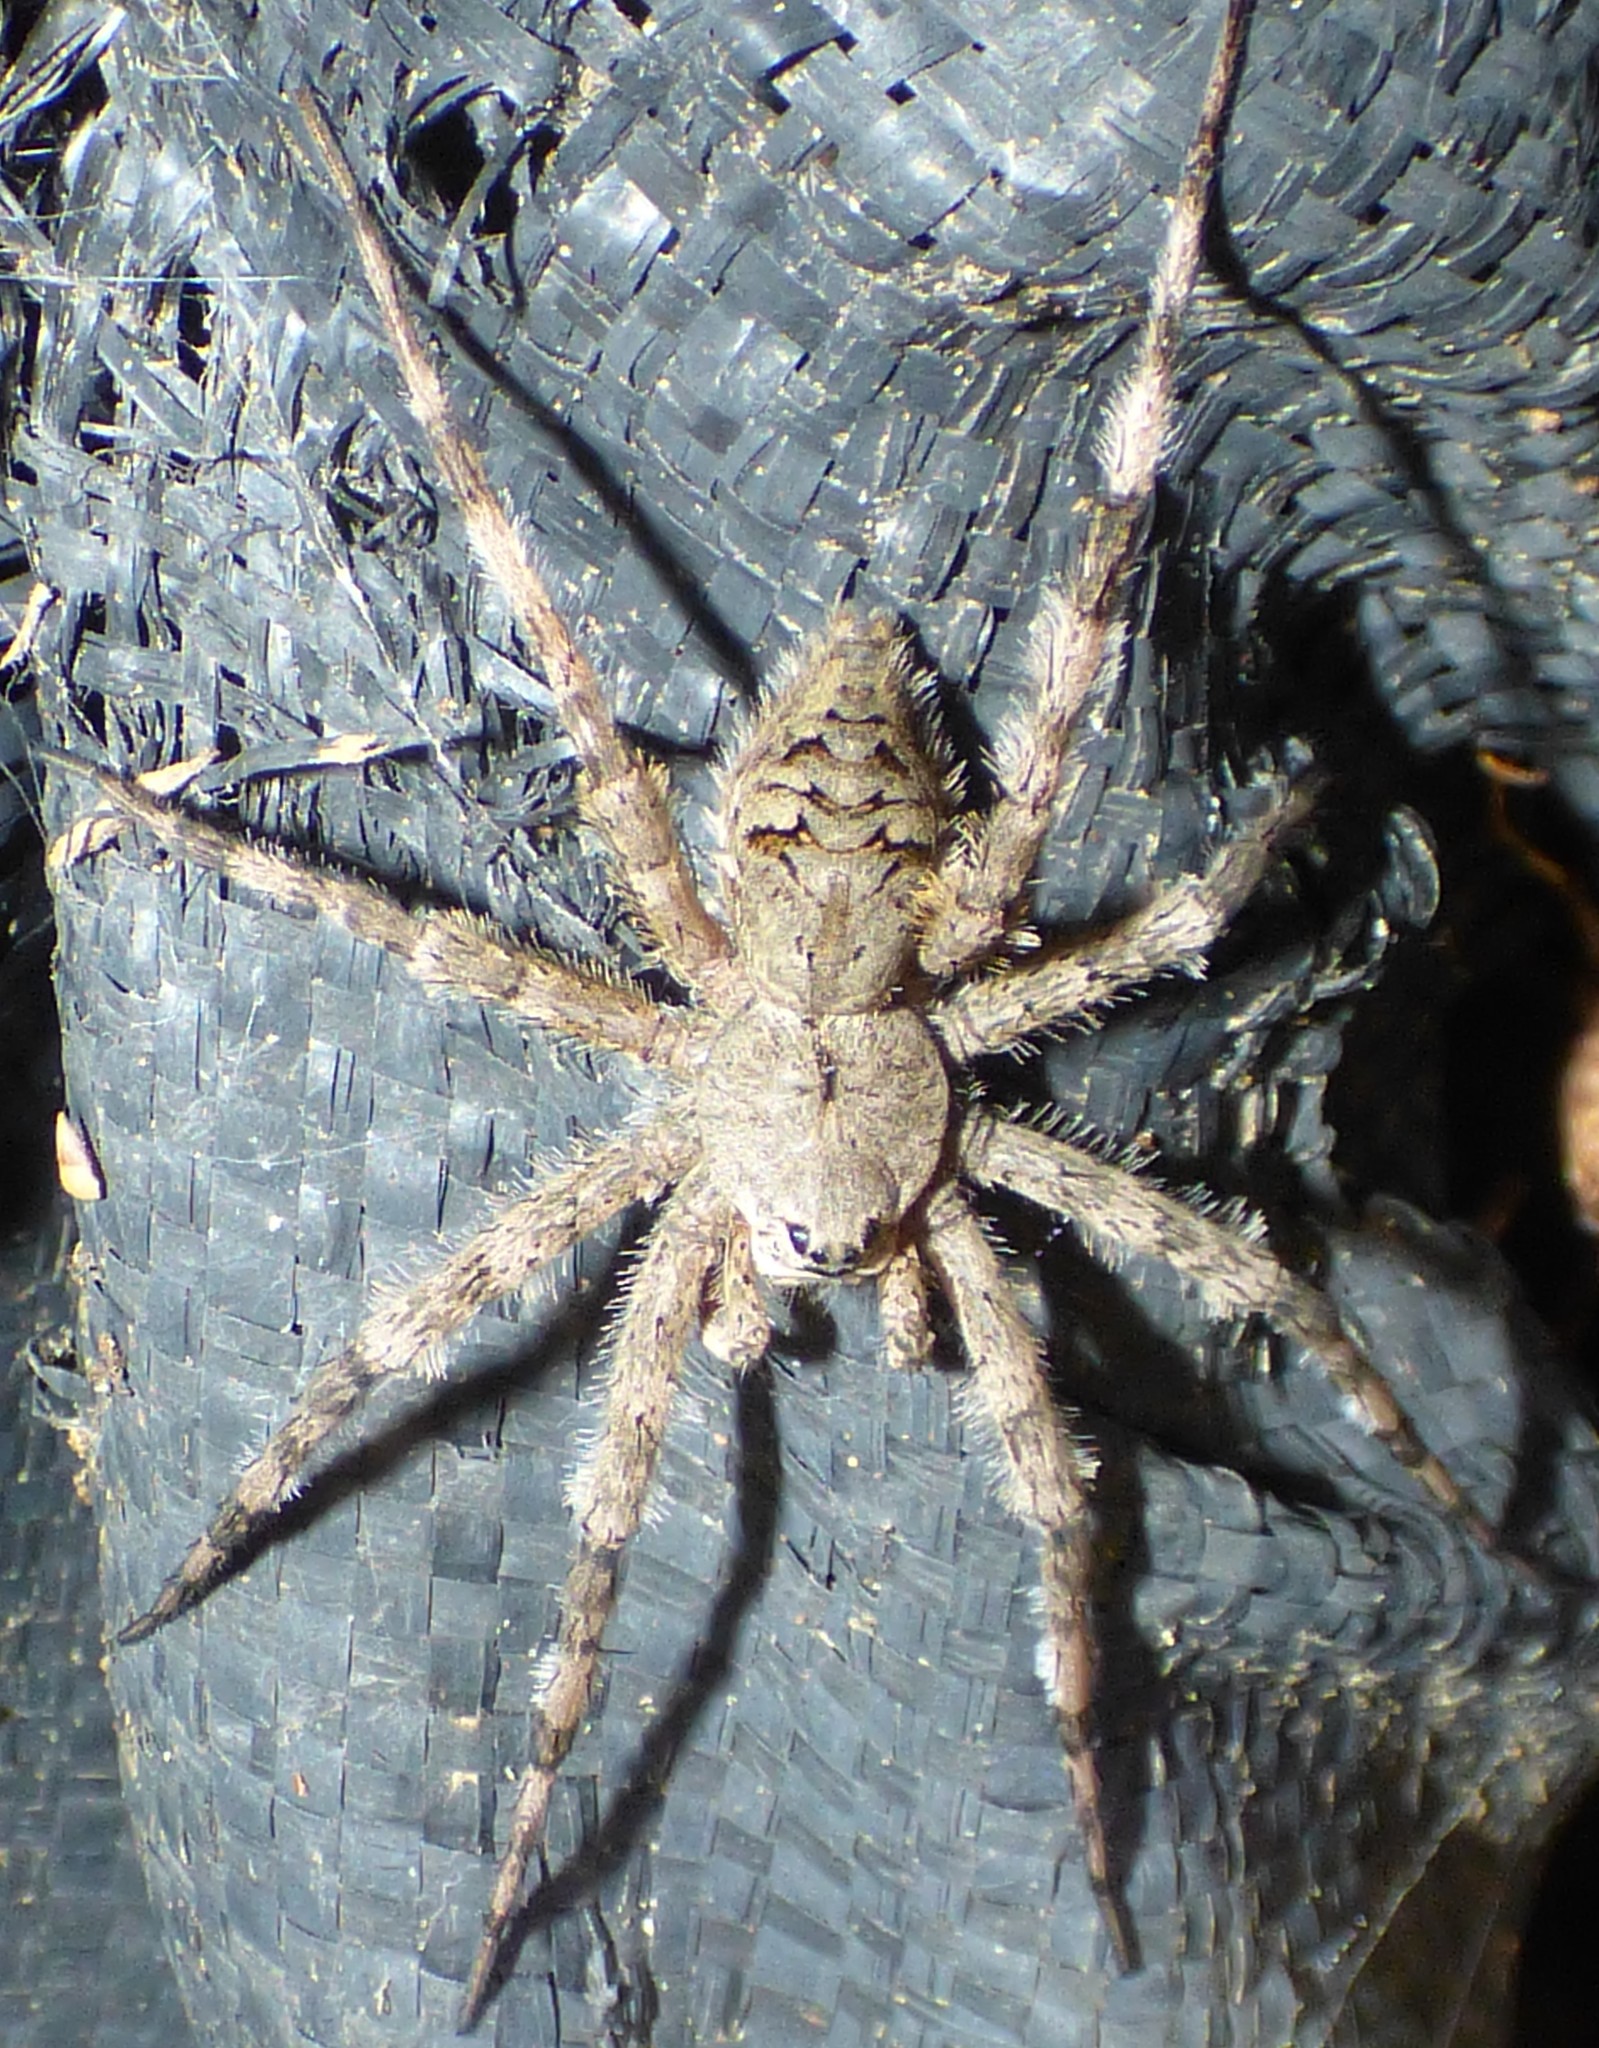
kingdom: Animalia
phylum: Arthropoda
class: Arachnida
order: Araneae
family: Pisauridae
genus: Dolomedes
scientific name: Dolomedes albineus
